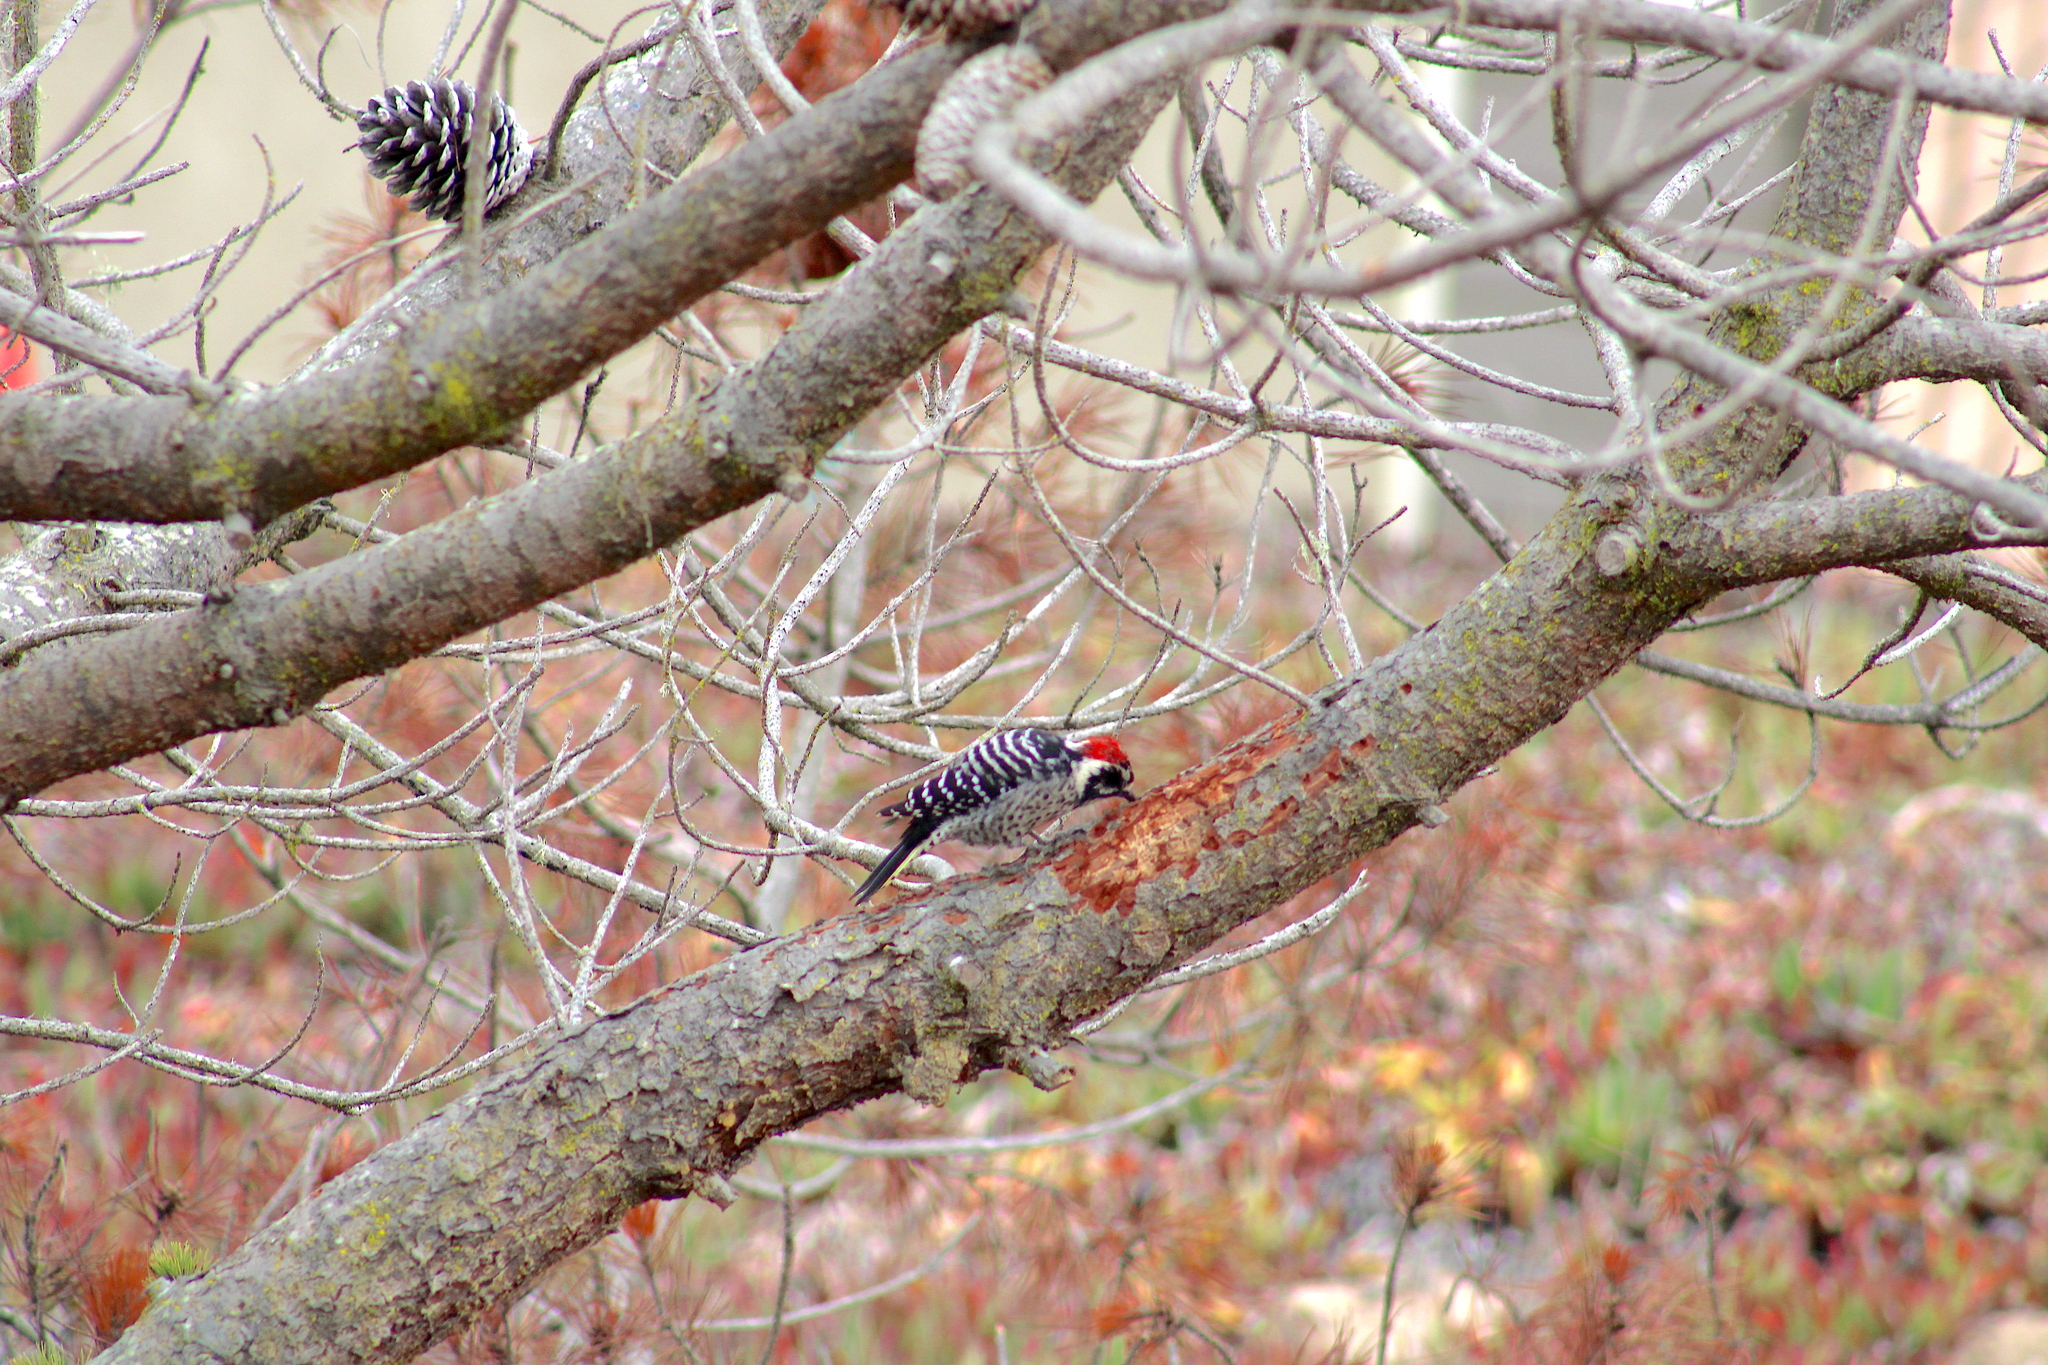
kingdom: Animalia
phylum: Chordata
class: Aves
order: Piciformes
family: Picidae
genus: Dryobates
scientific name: Dryobates nuttallii
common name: Nuttall's woodpecker
